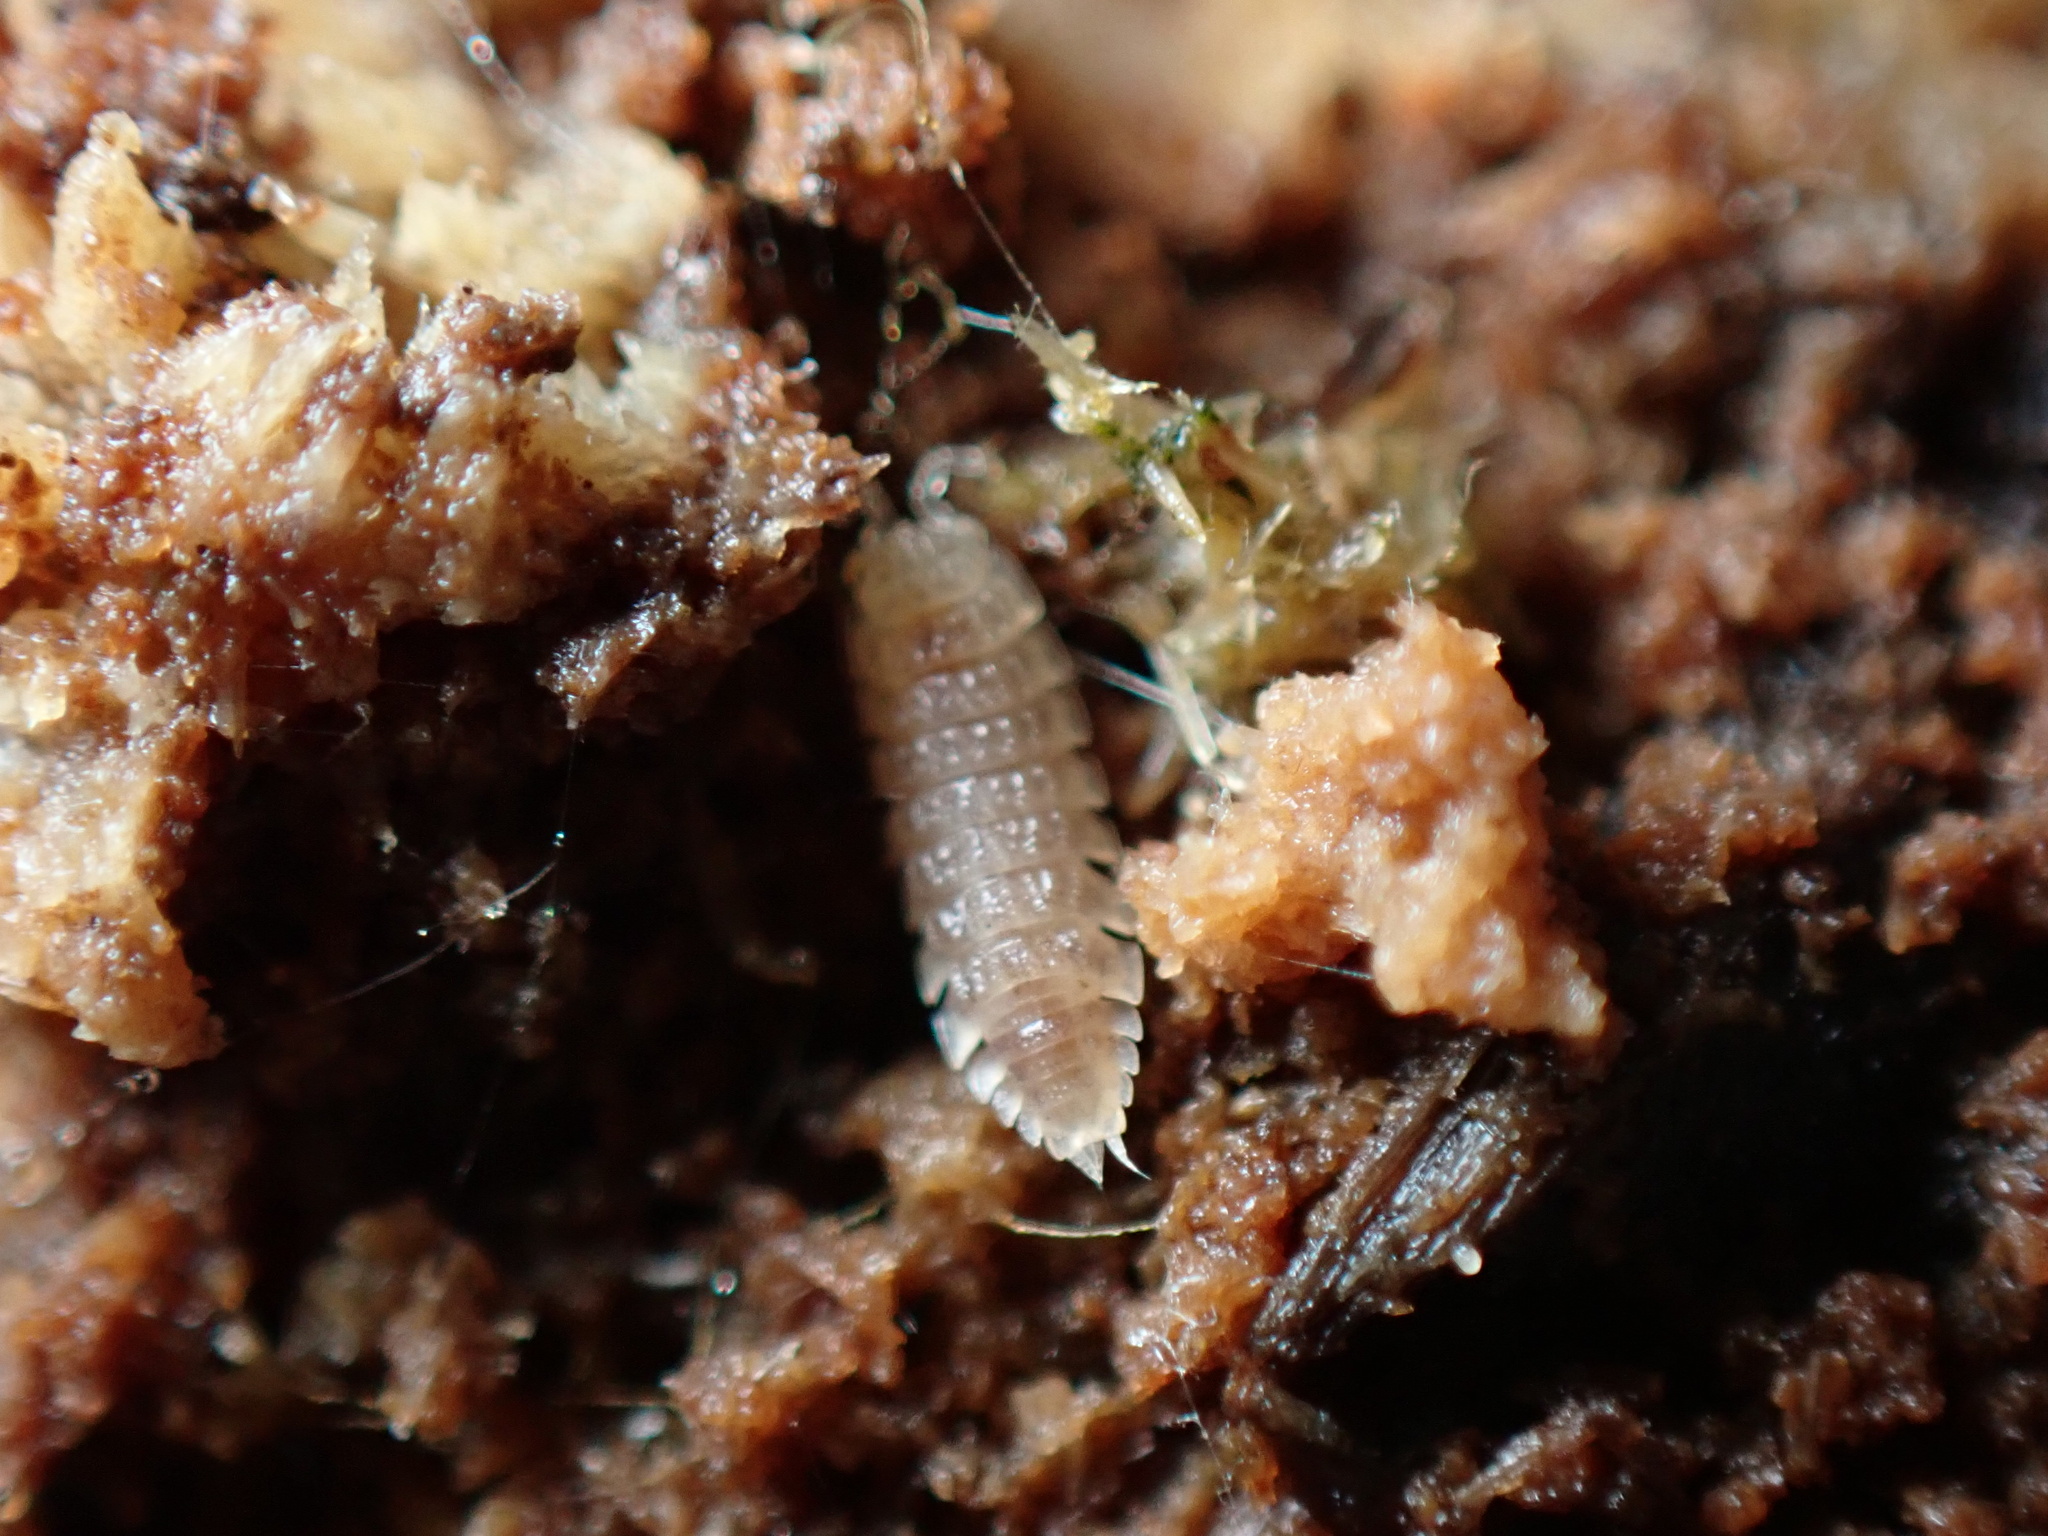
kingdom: Animalia
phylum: Arthropoda
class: Malacostraca
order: Isopoda
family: Trichoniscidae
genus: Haplophthalmus
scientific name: Haplophthalmus danicus
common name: Pillbug
